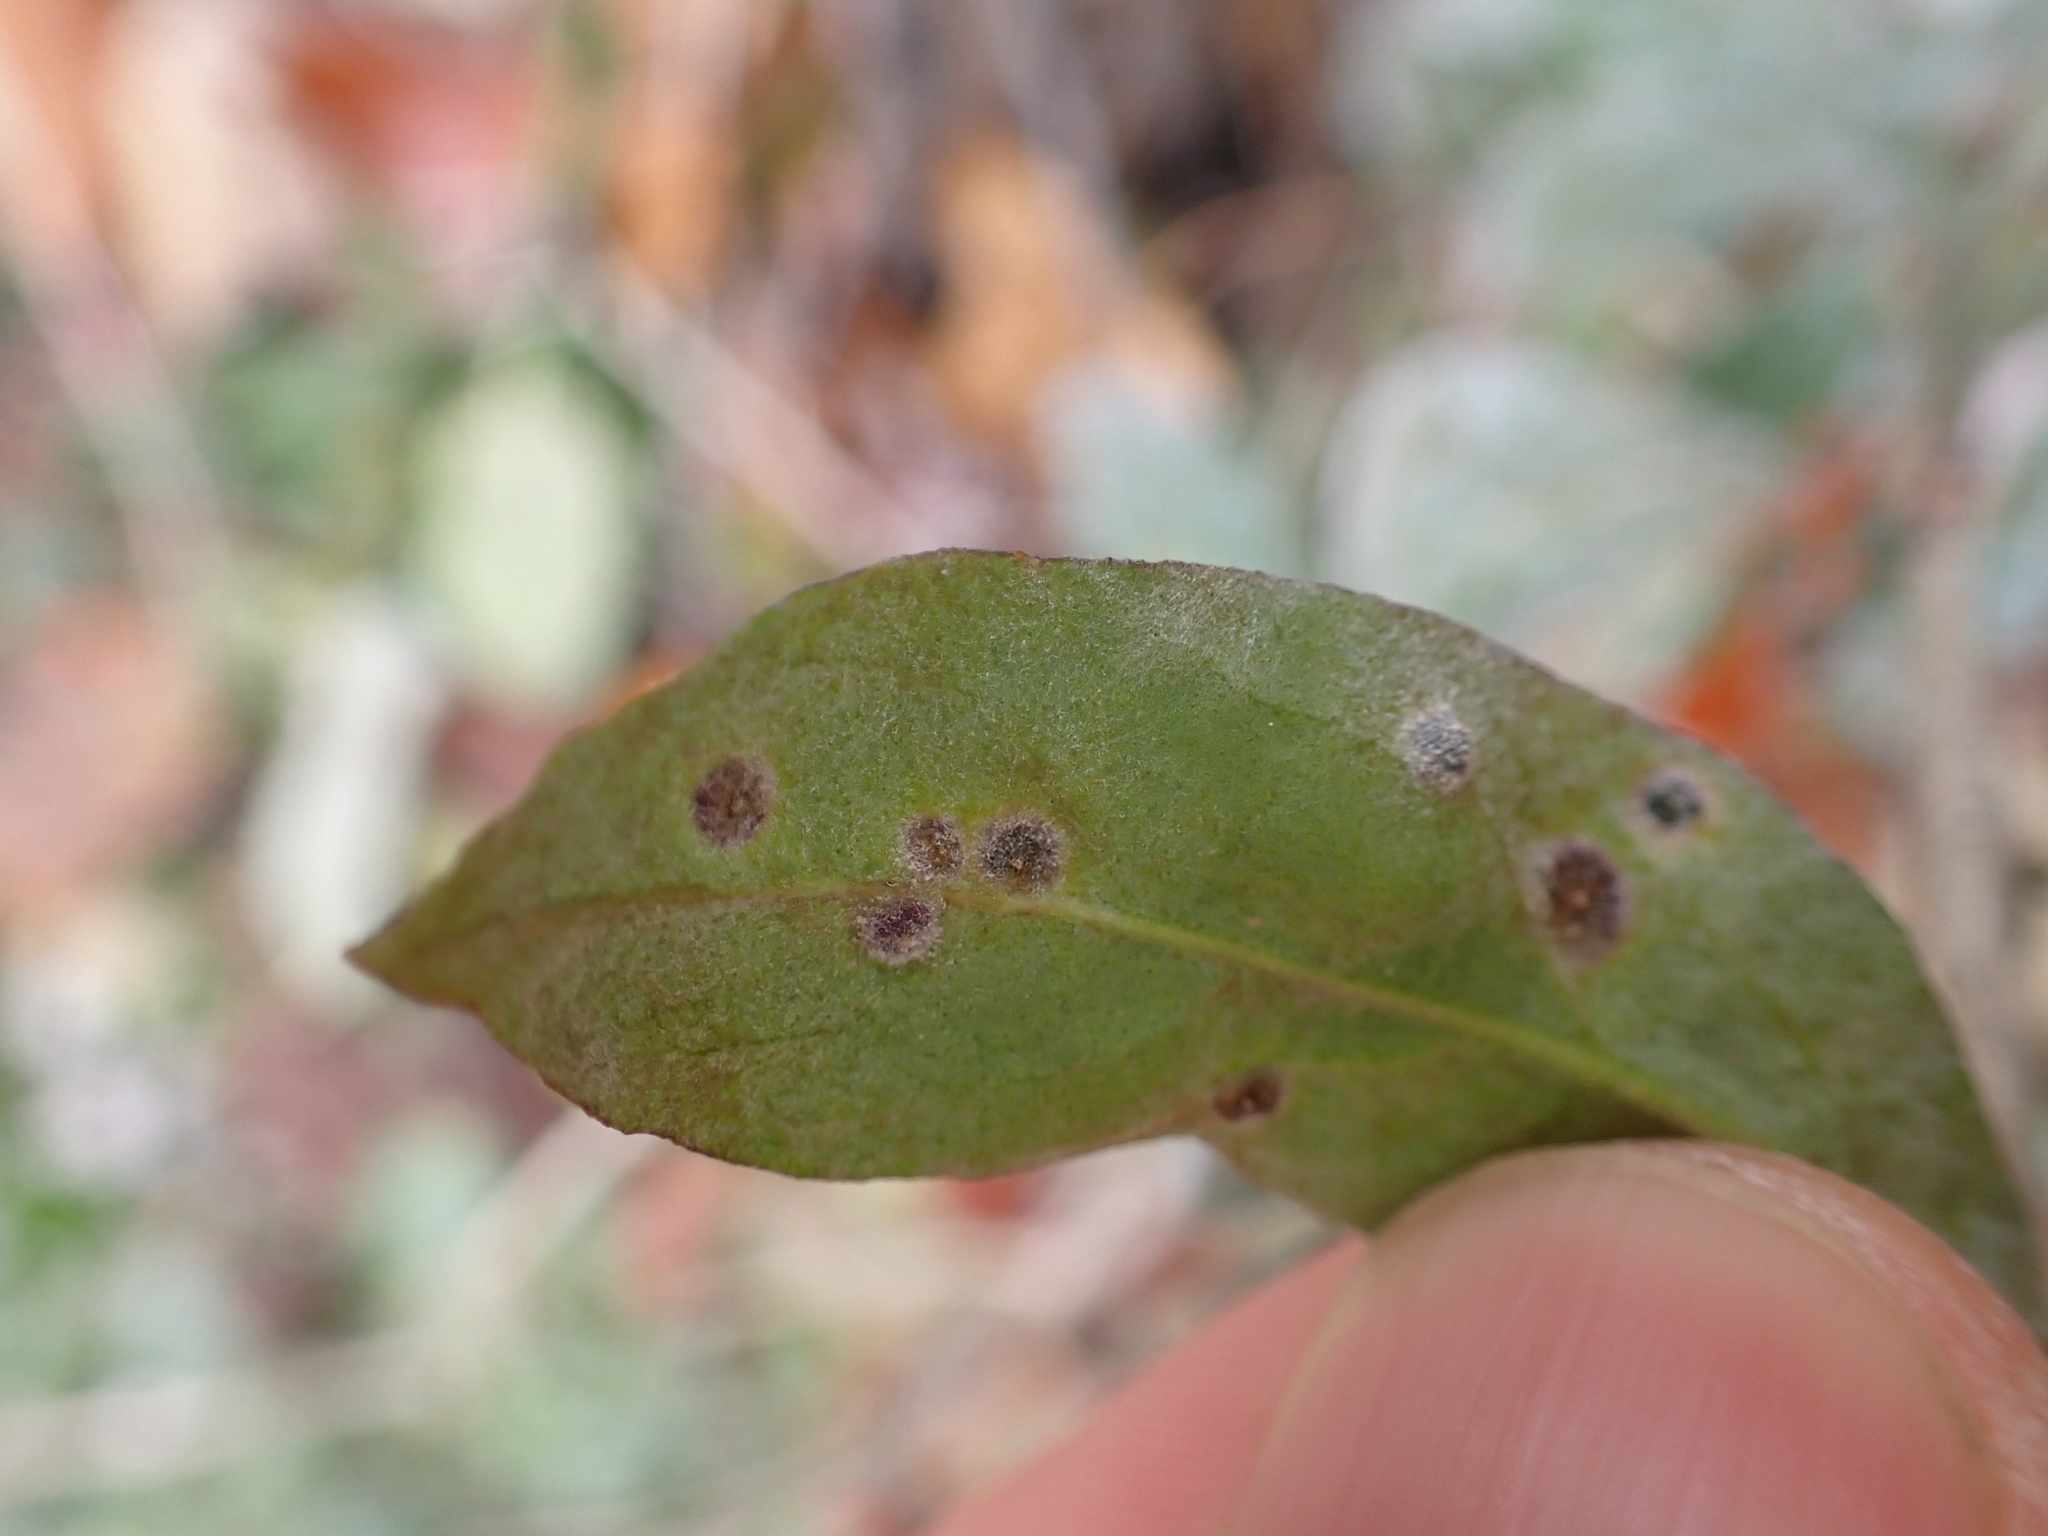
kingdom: Animalia
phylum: Arthropoda
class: Arachnida
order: Trombidiformes
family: Eriophyidae
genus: Aceria
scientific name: Aceria kuko
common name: Goji gall mite
